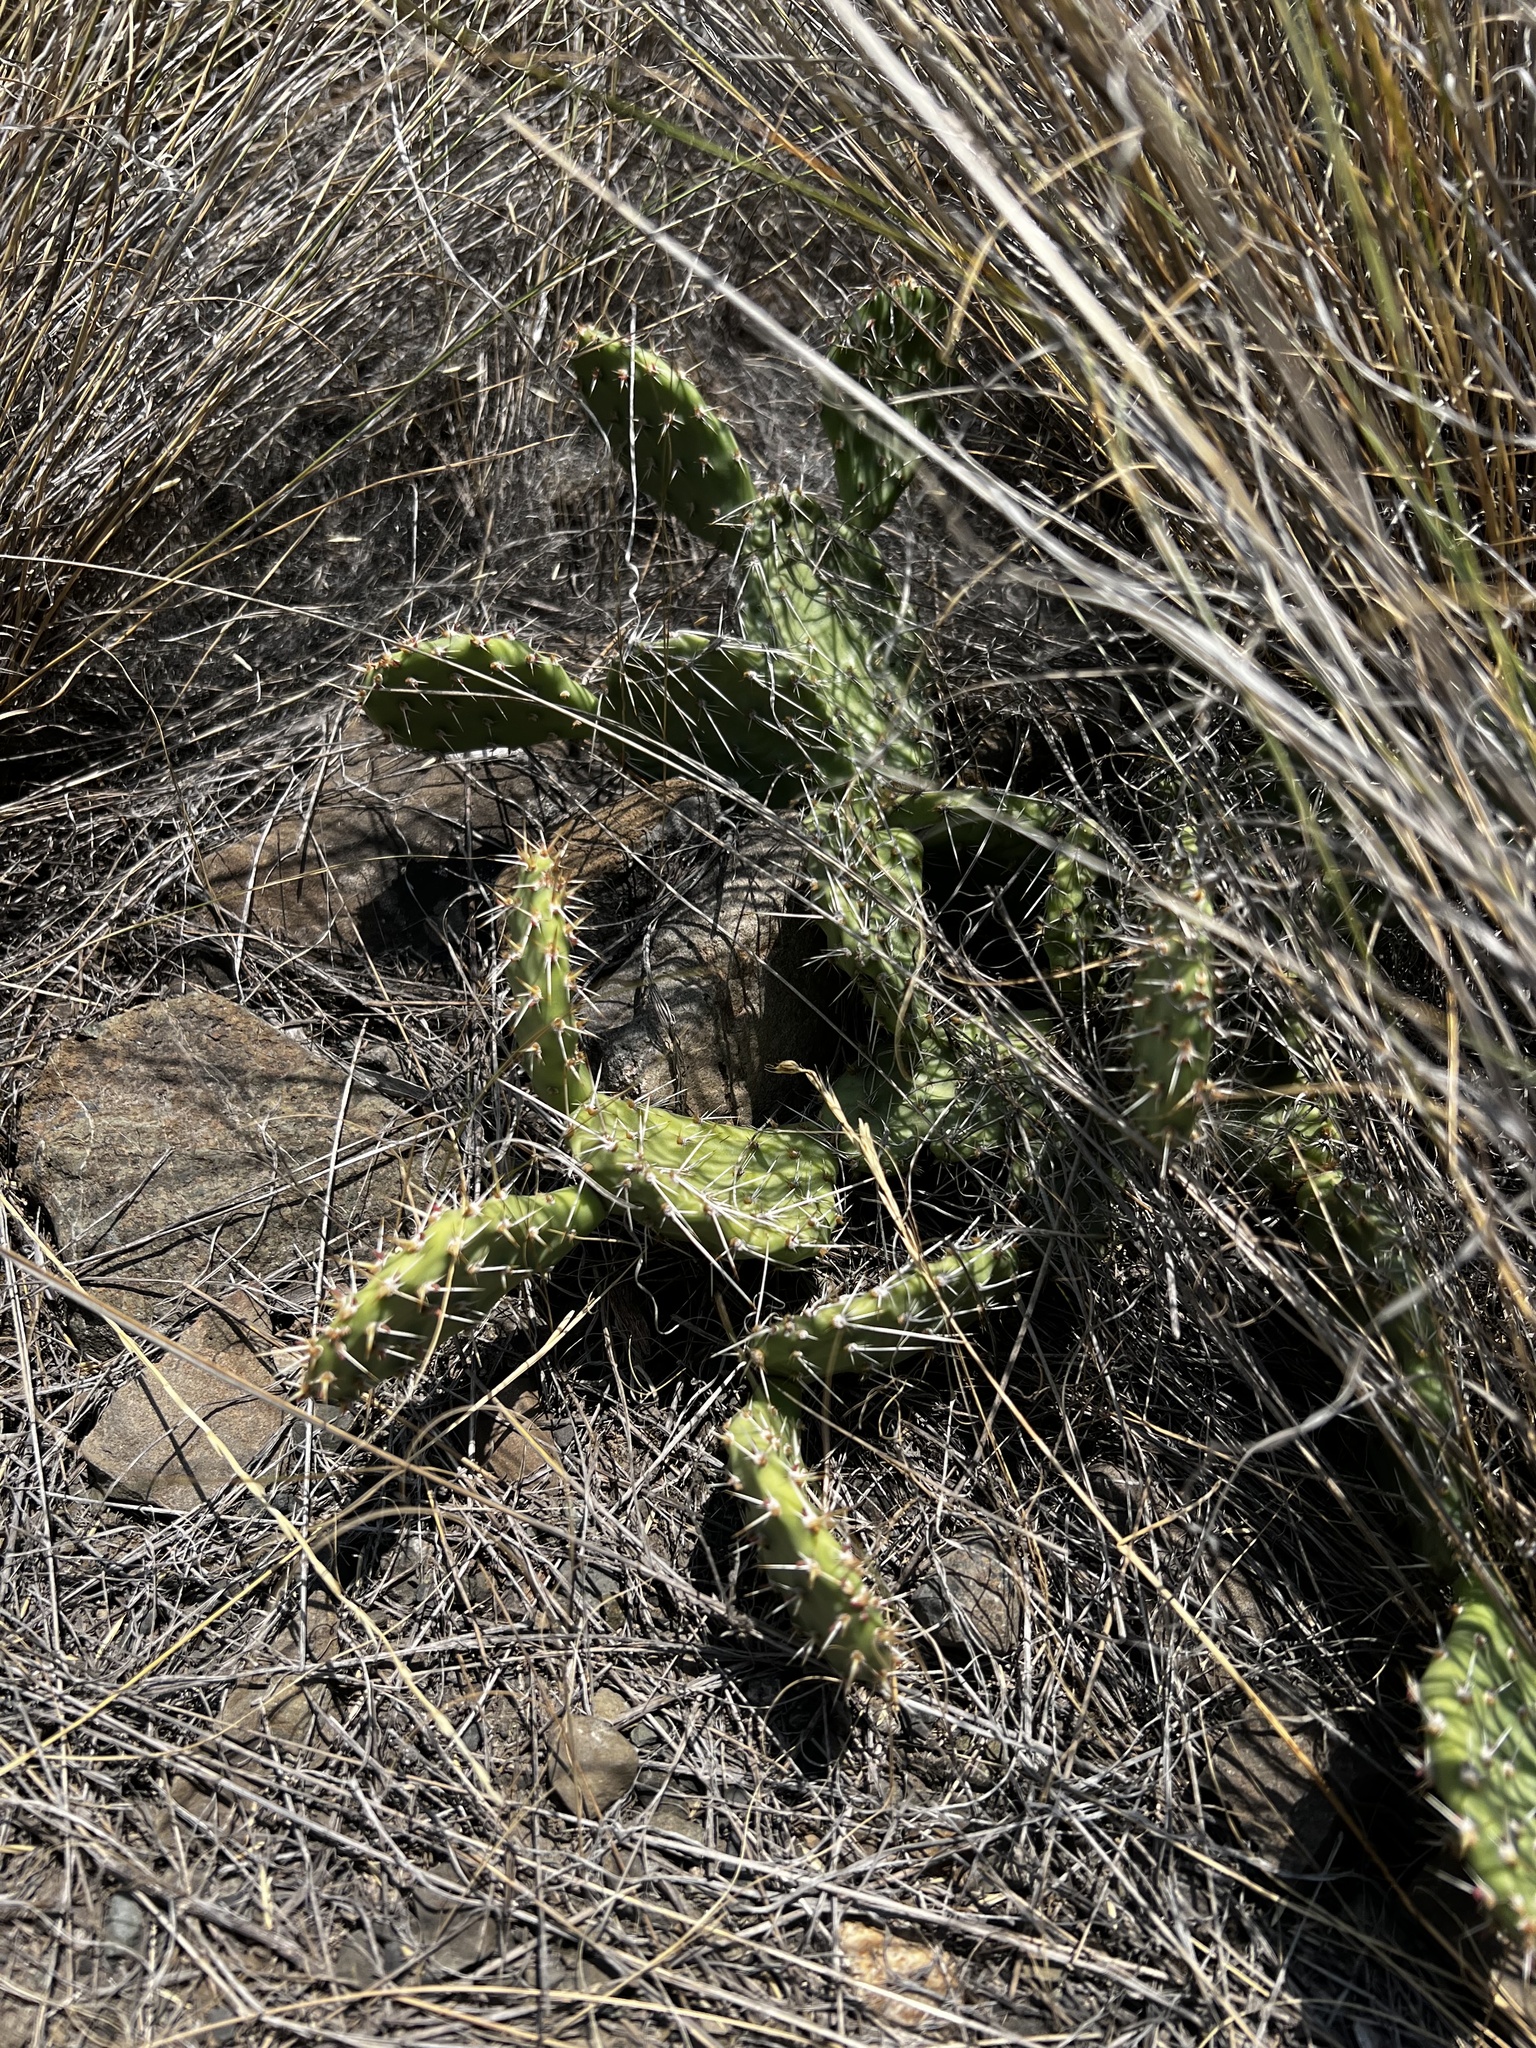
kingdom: Plantae
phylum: Tracheophyta
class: Magnoliopsida
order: Caryophyllales
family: Cactaceae
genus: Opuntia
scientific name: Opuntia columbiana
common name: Columbia prickly-pear
